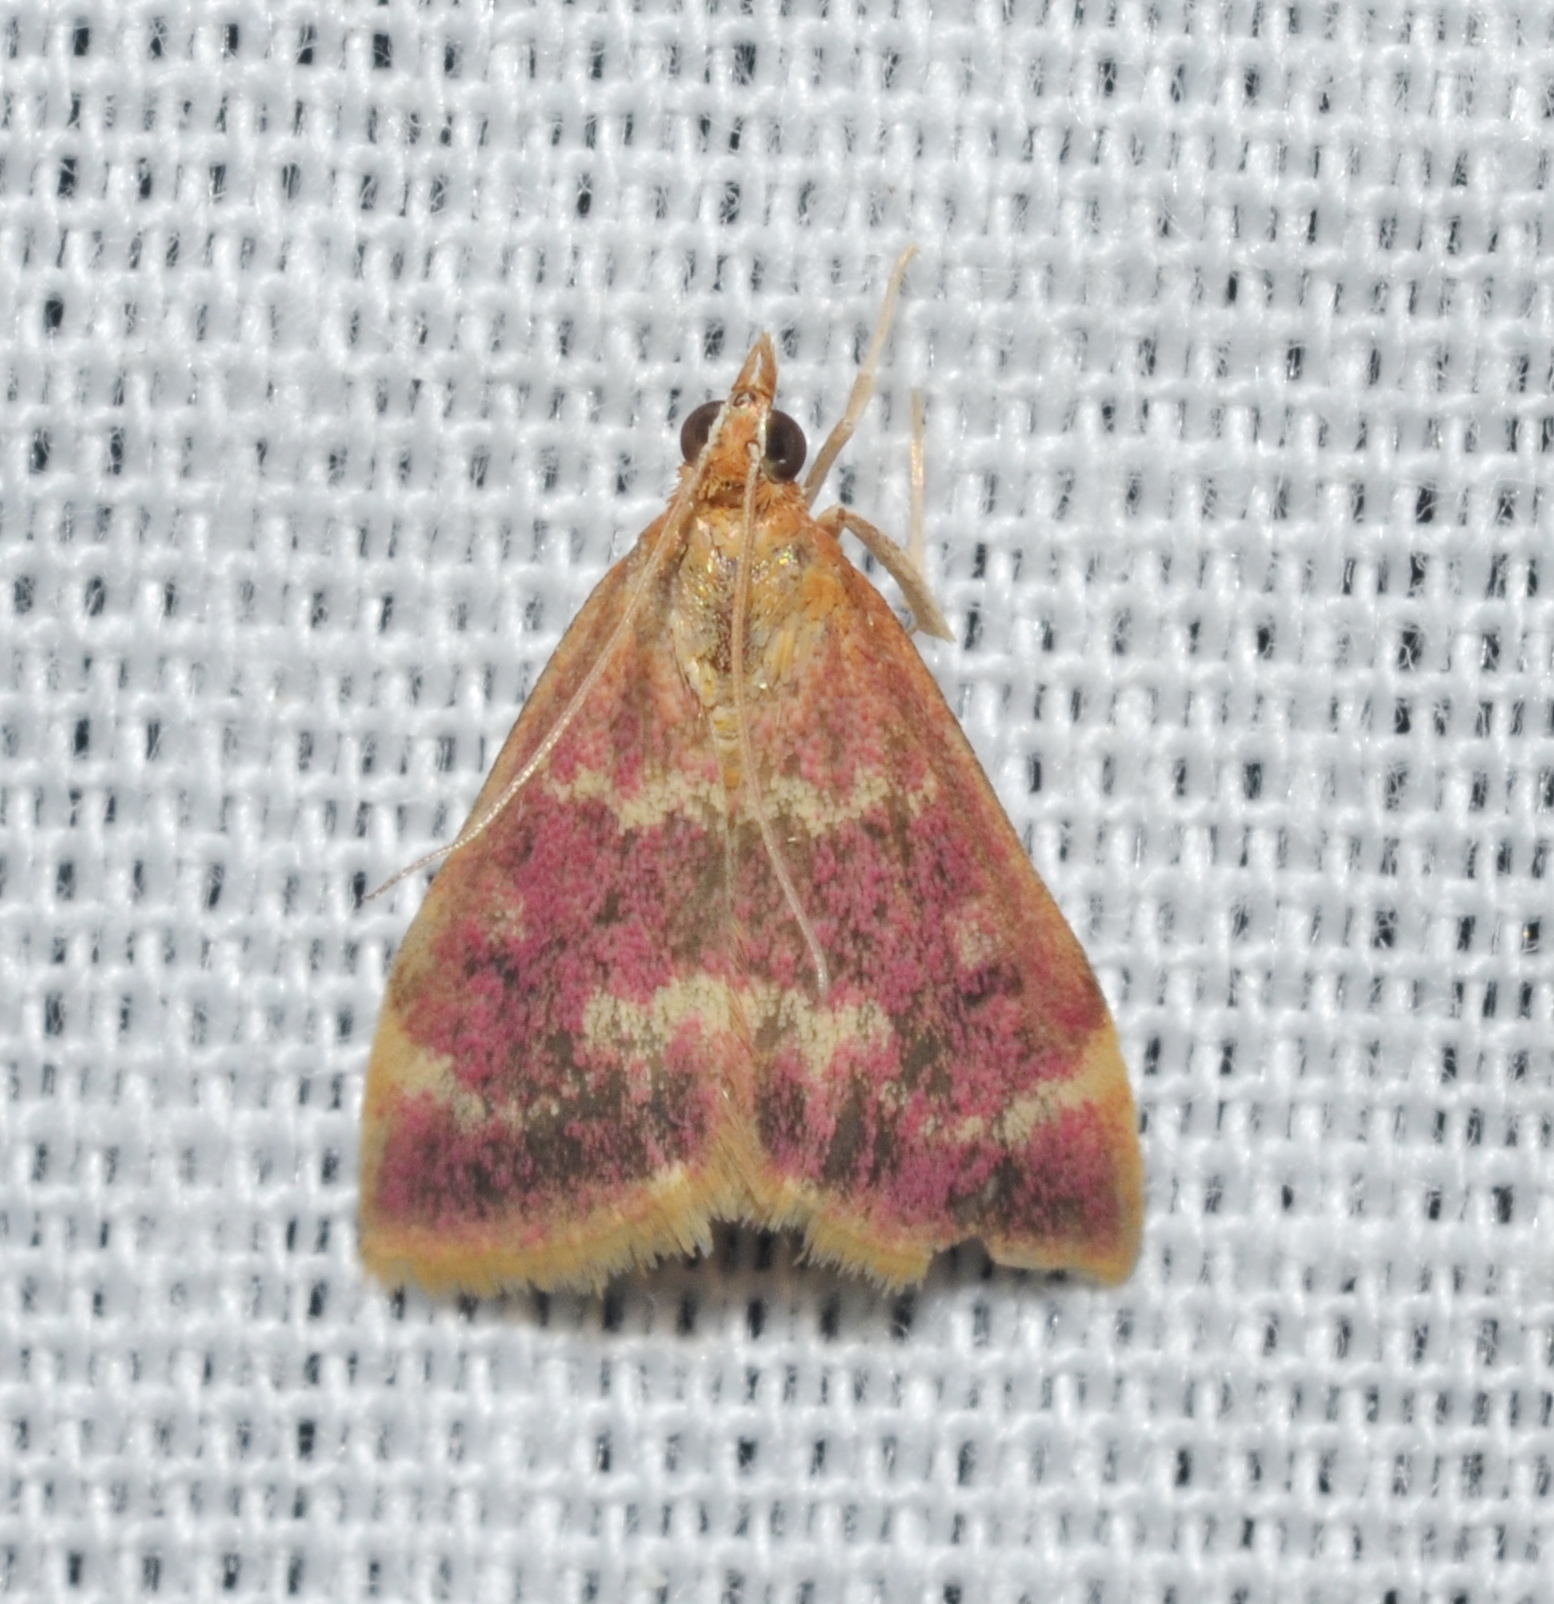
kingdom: Animalia
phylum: Arthropoda
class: Insecta
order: Lepidoptera
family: Crambidae
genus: Pyrausta
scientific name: Pyrausta signatalis
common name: Raspberry pyrausta moth
